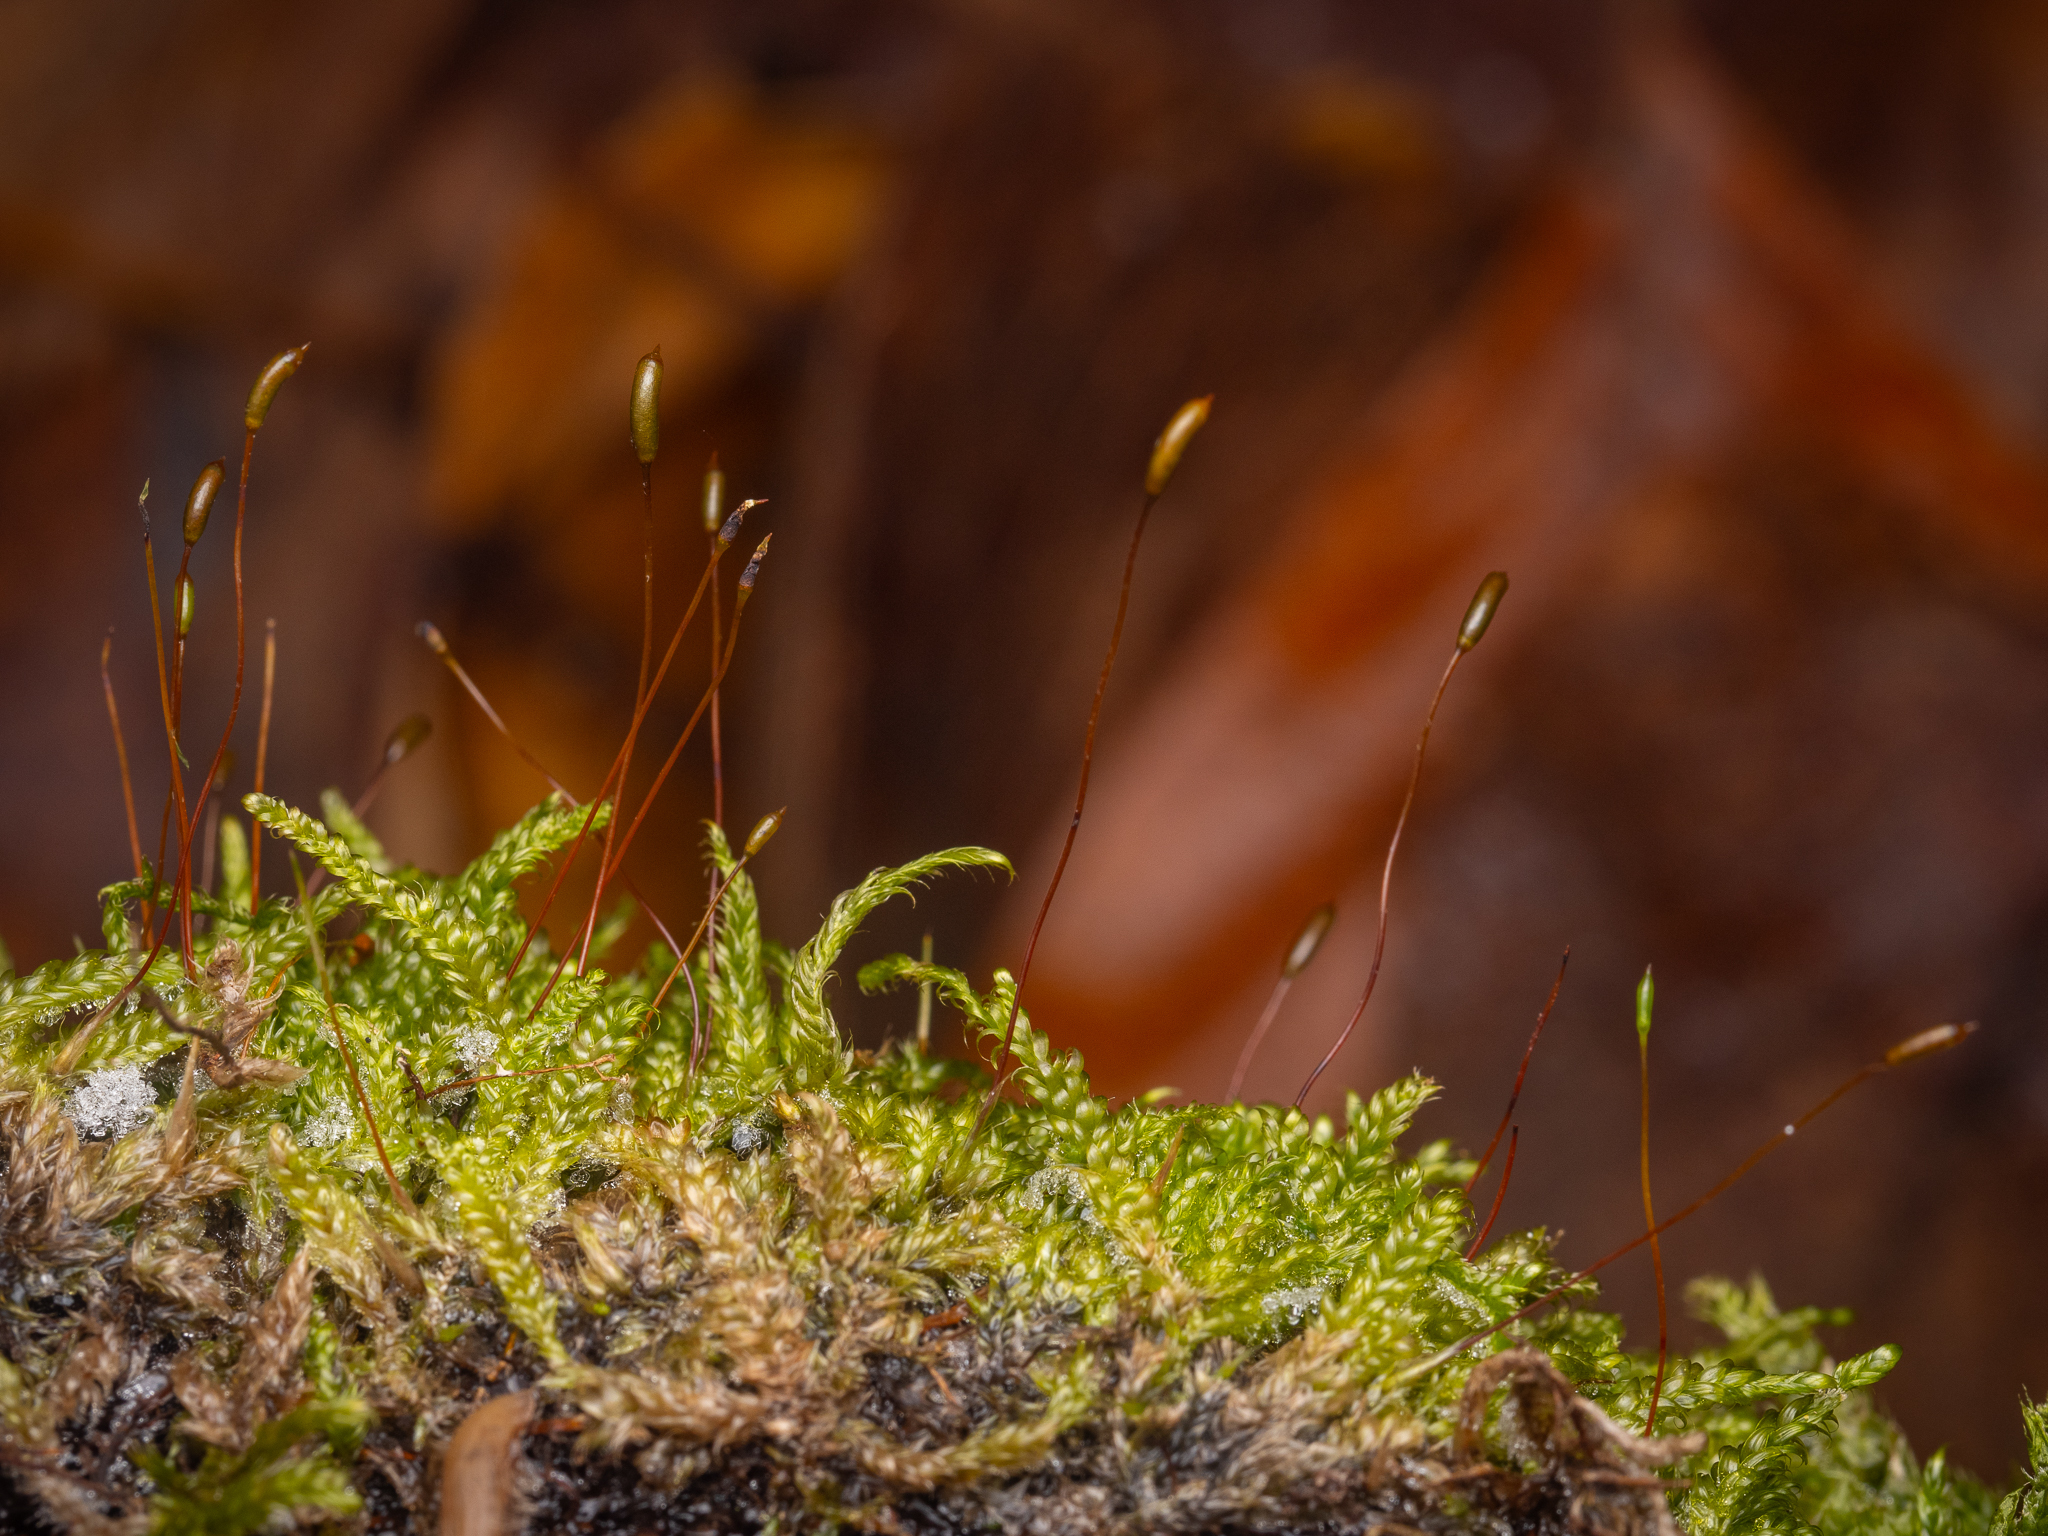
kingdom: Plantae
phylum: Bryophyta
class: Bryopsida
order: Hypnales
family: Hypnaceae
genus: Hypnum
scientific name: Hypnum cupressiforme
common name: Cypress-leaved plait-moss
